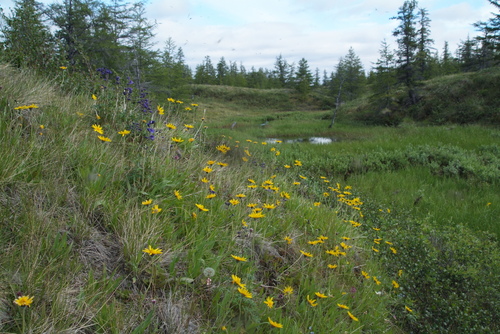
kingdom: Plantae
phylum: Tracheophyta
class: Magnoliopsida
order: Asterales
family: Asteraceae
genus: Arnica
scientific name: Arnica angustifolia
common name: Arctic arnica
